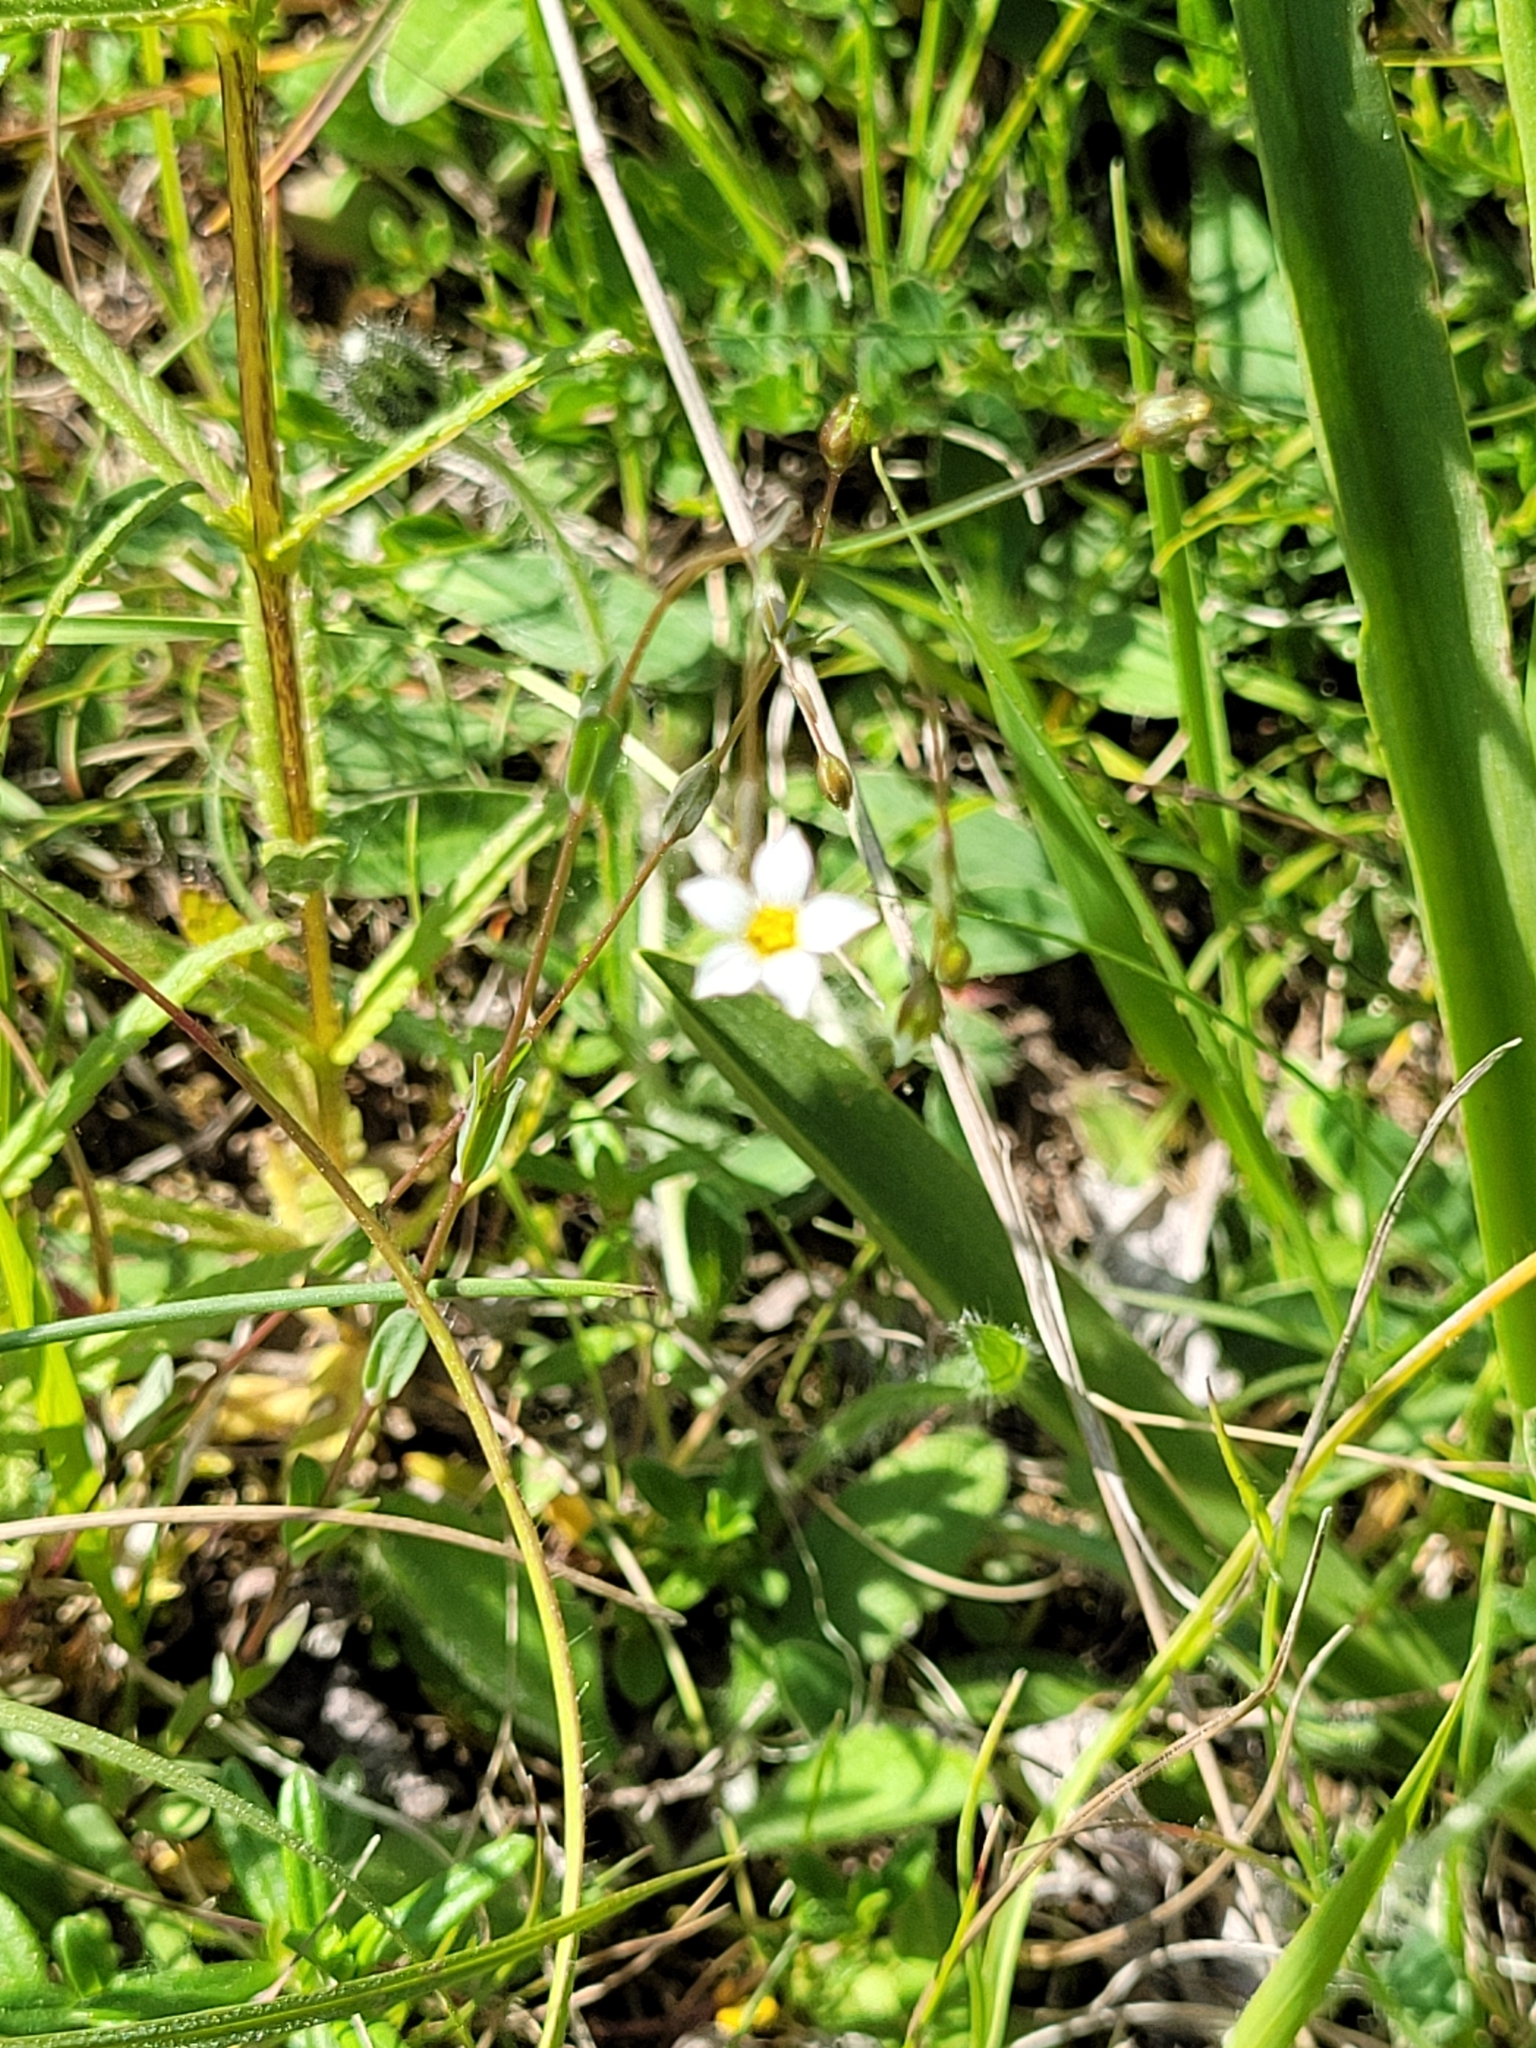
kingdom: Plantae
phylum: Tracheophyta
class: Magnoliopsida
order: Malpighiales
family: Linaceae
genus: Linum
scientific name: Linum catharticum
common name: Fairy flax
